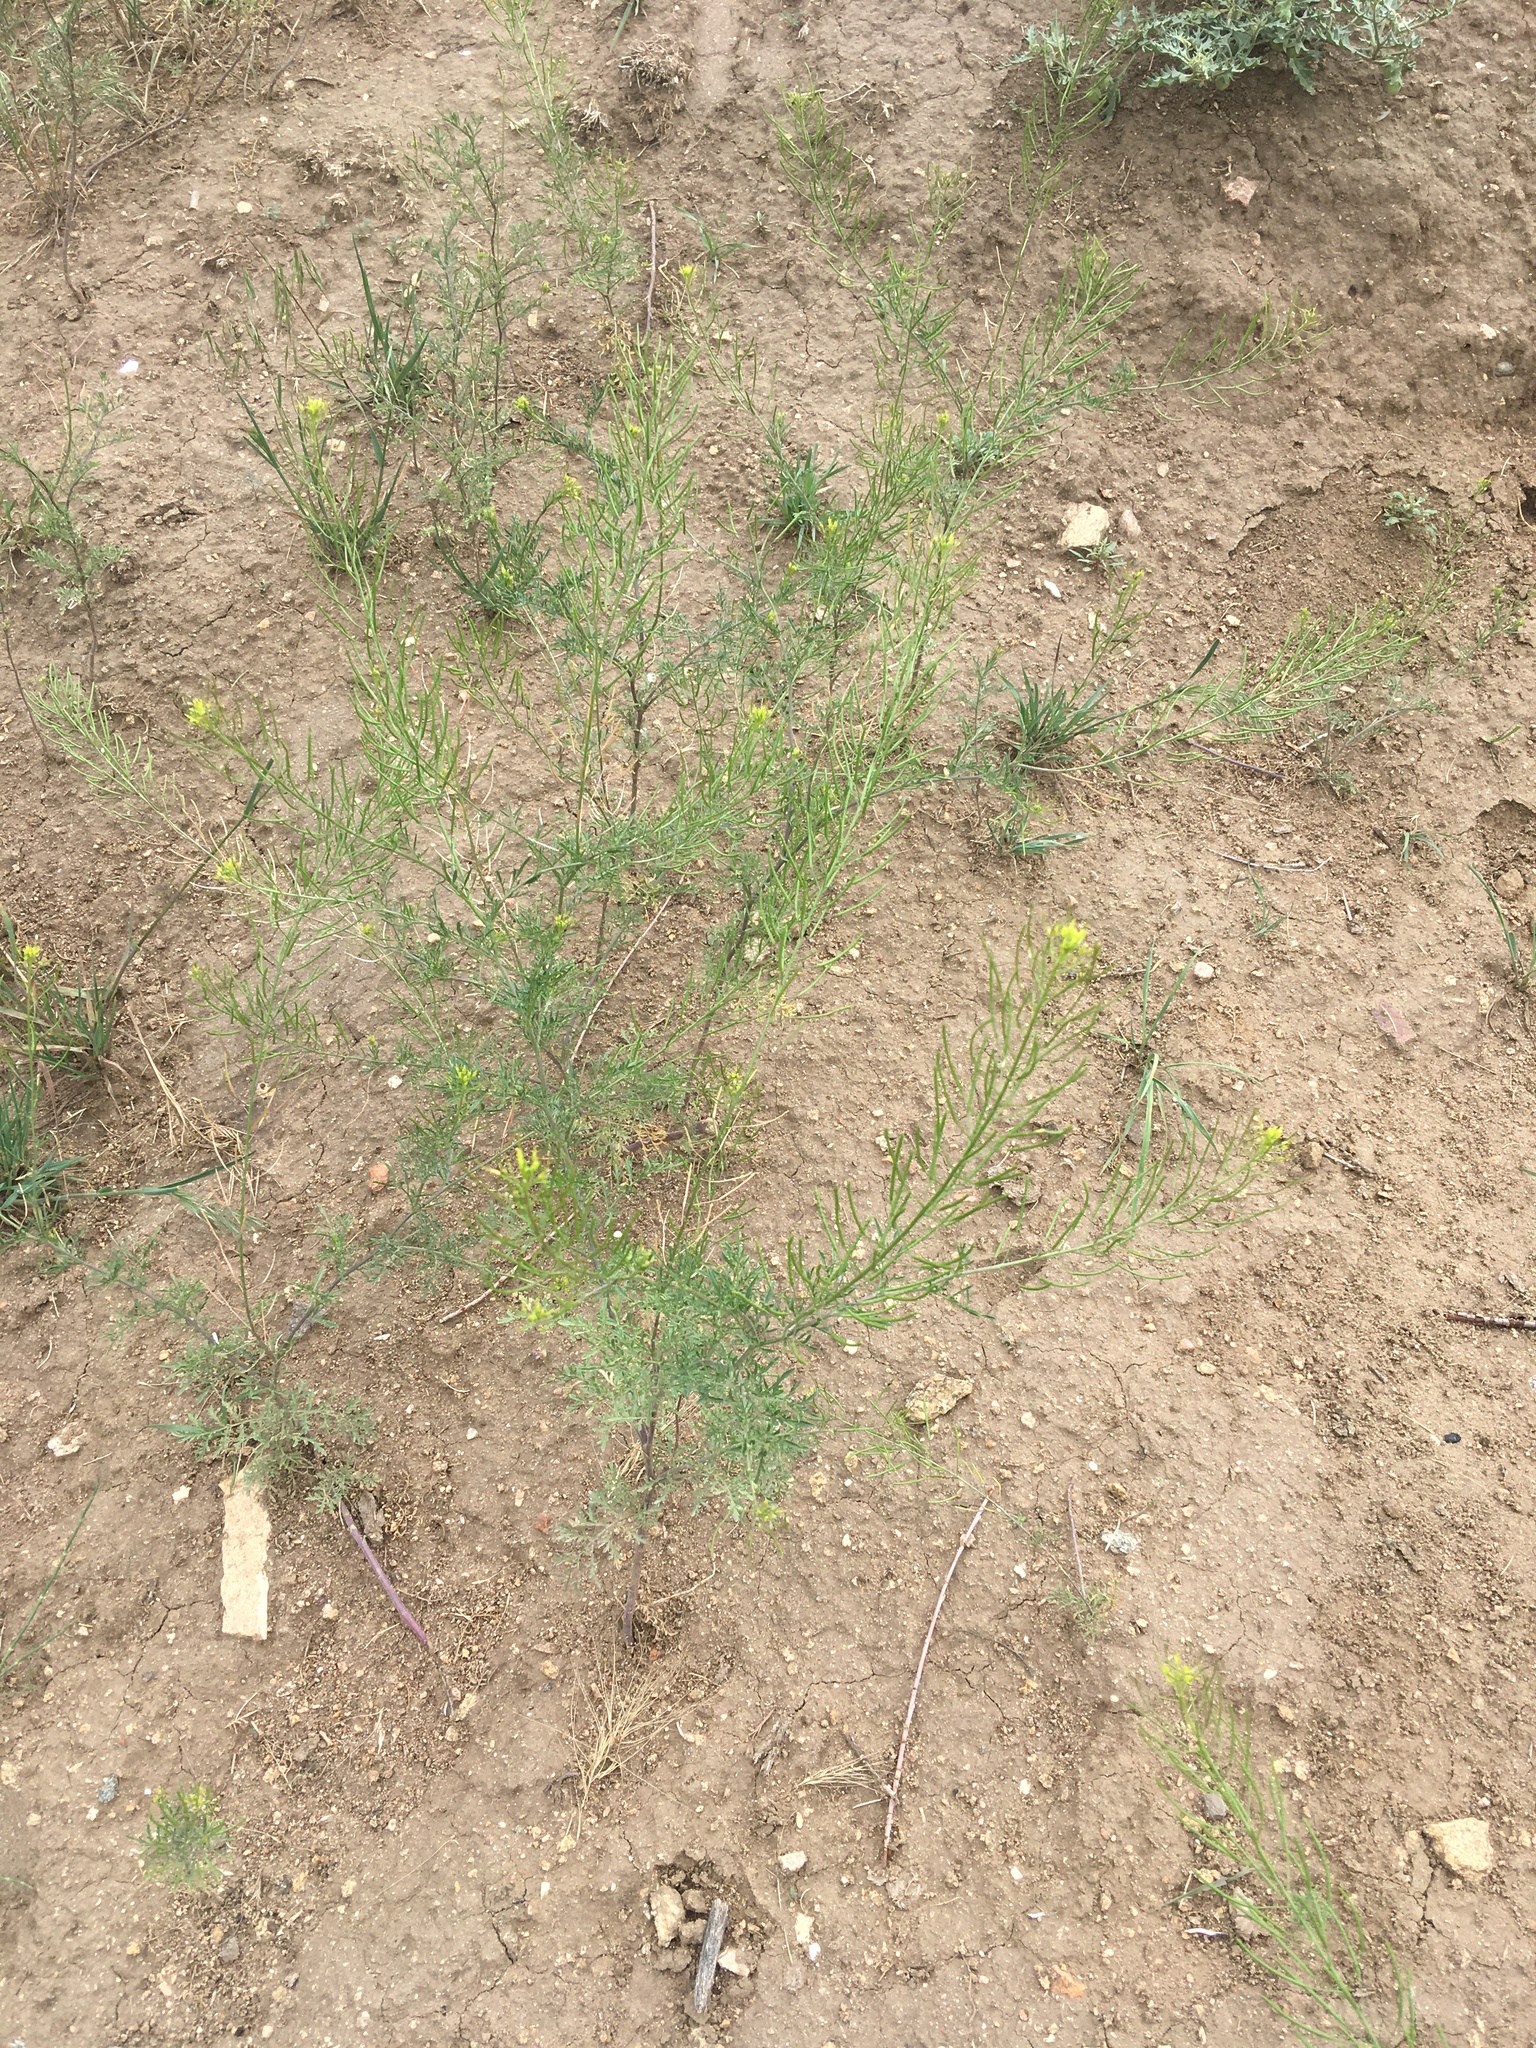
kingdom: Plantae
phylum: Tracheophyta
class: Magnoliopsida
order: Brassicales
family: Brassicaceae
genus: Descurainia
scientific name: Descurainia sophia
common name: Flixweed
